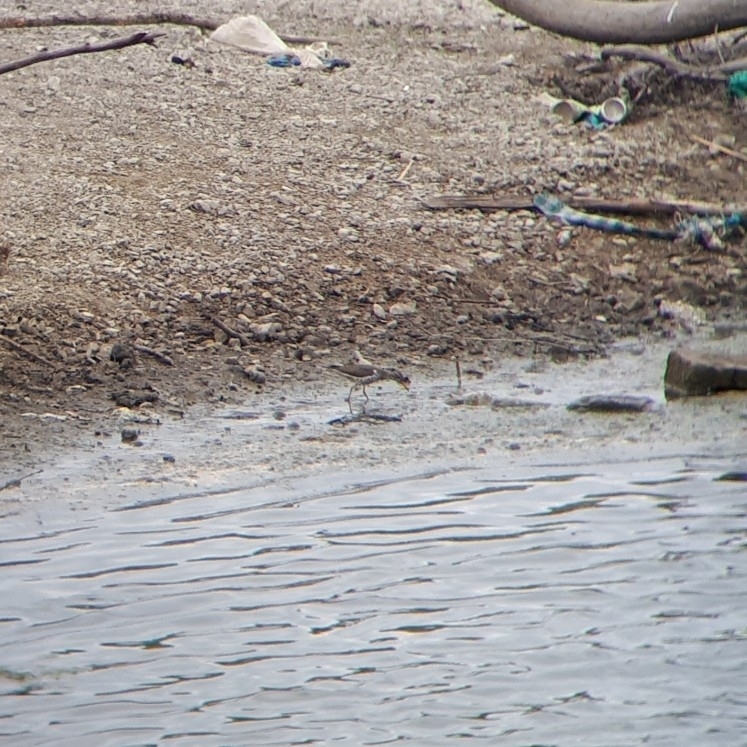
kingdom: Animalia
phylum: Chordata
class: Aves
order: Charadriiformes
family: Scolopacidae
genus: Actitis
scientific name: Actitis macularius
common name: Spotted sandpiper
